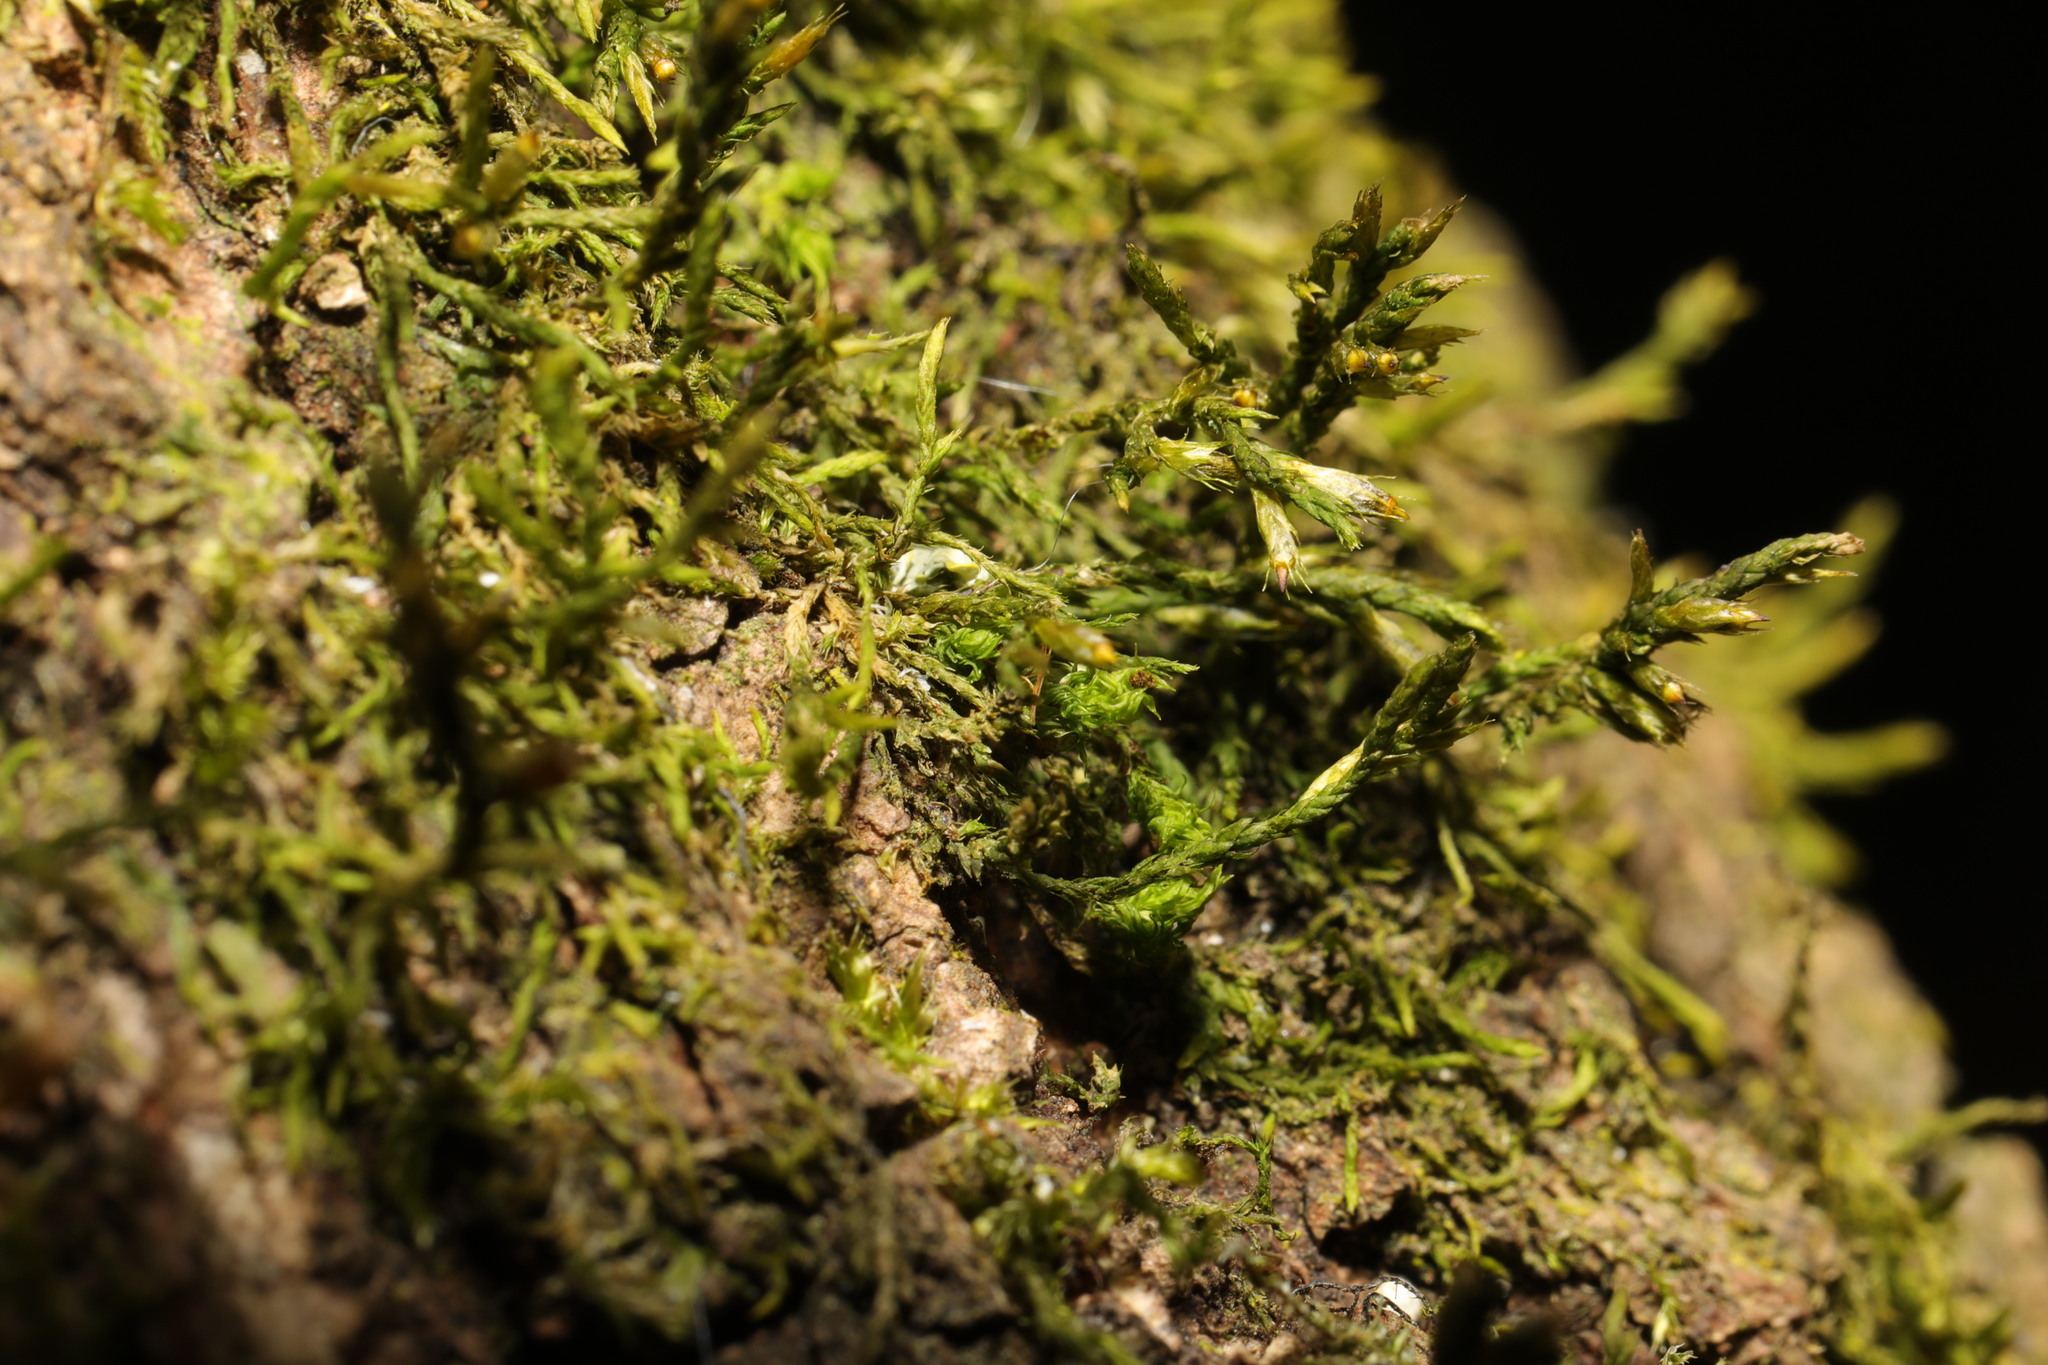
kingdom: Plantae
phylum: Bryophyta
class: Bryopsida
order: Hypnales
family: Cryphaeaceae
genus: Cryphaea
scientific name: Cryphaea heteromalla
